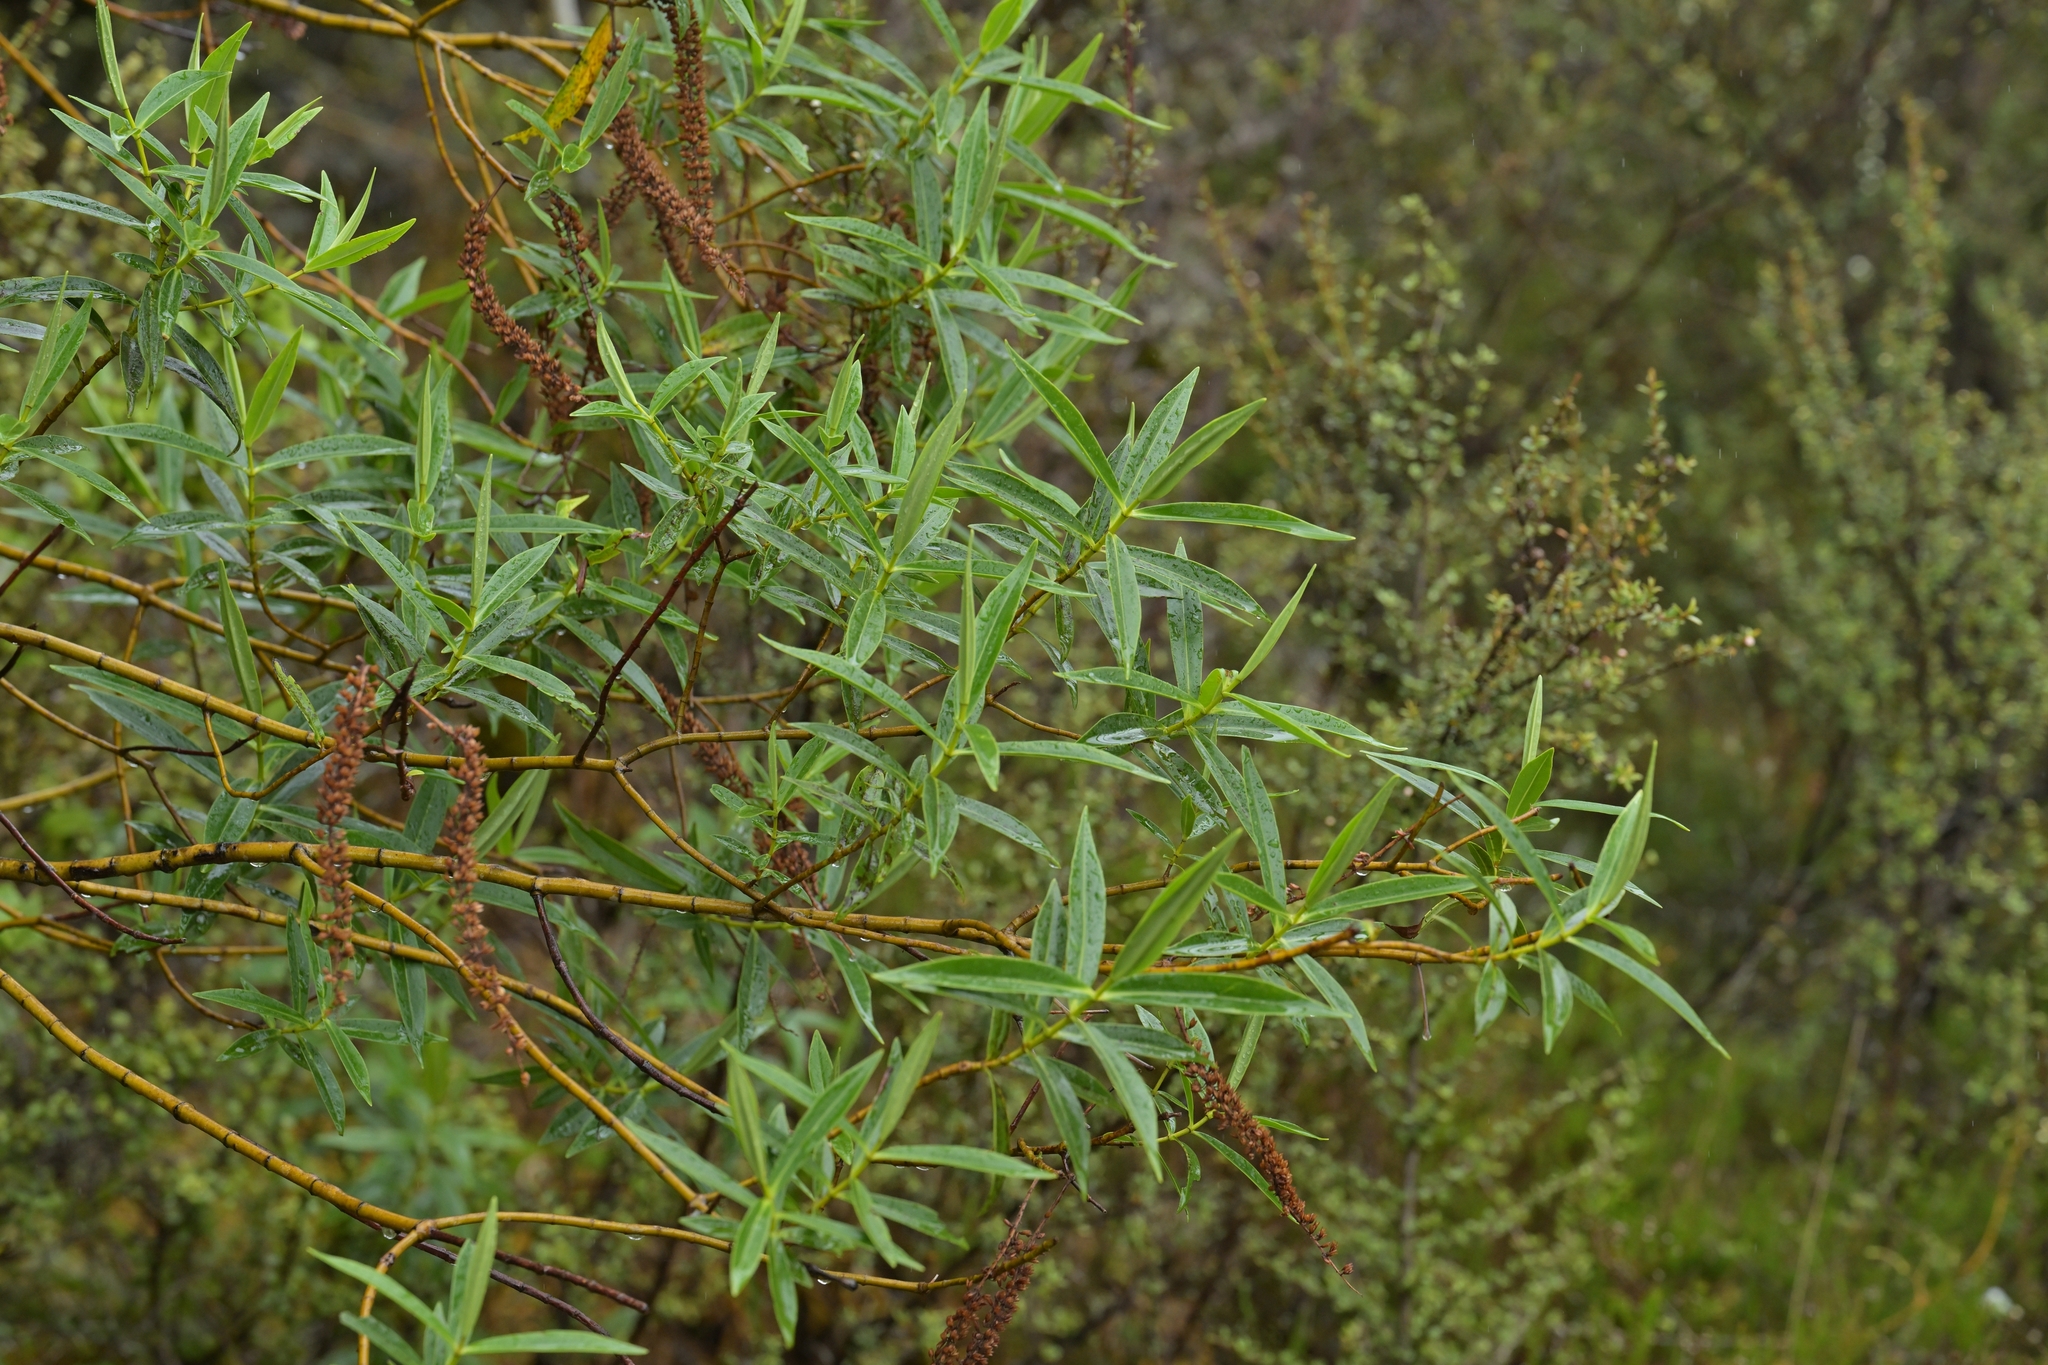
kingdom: Plantae
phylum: Tracheophyta
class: Magnoliopsida
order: Lamiales
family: Plantaginaceae
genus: Veronica
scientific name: Veronica stricta
